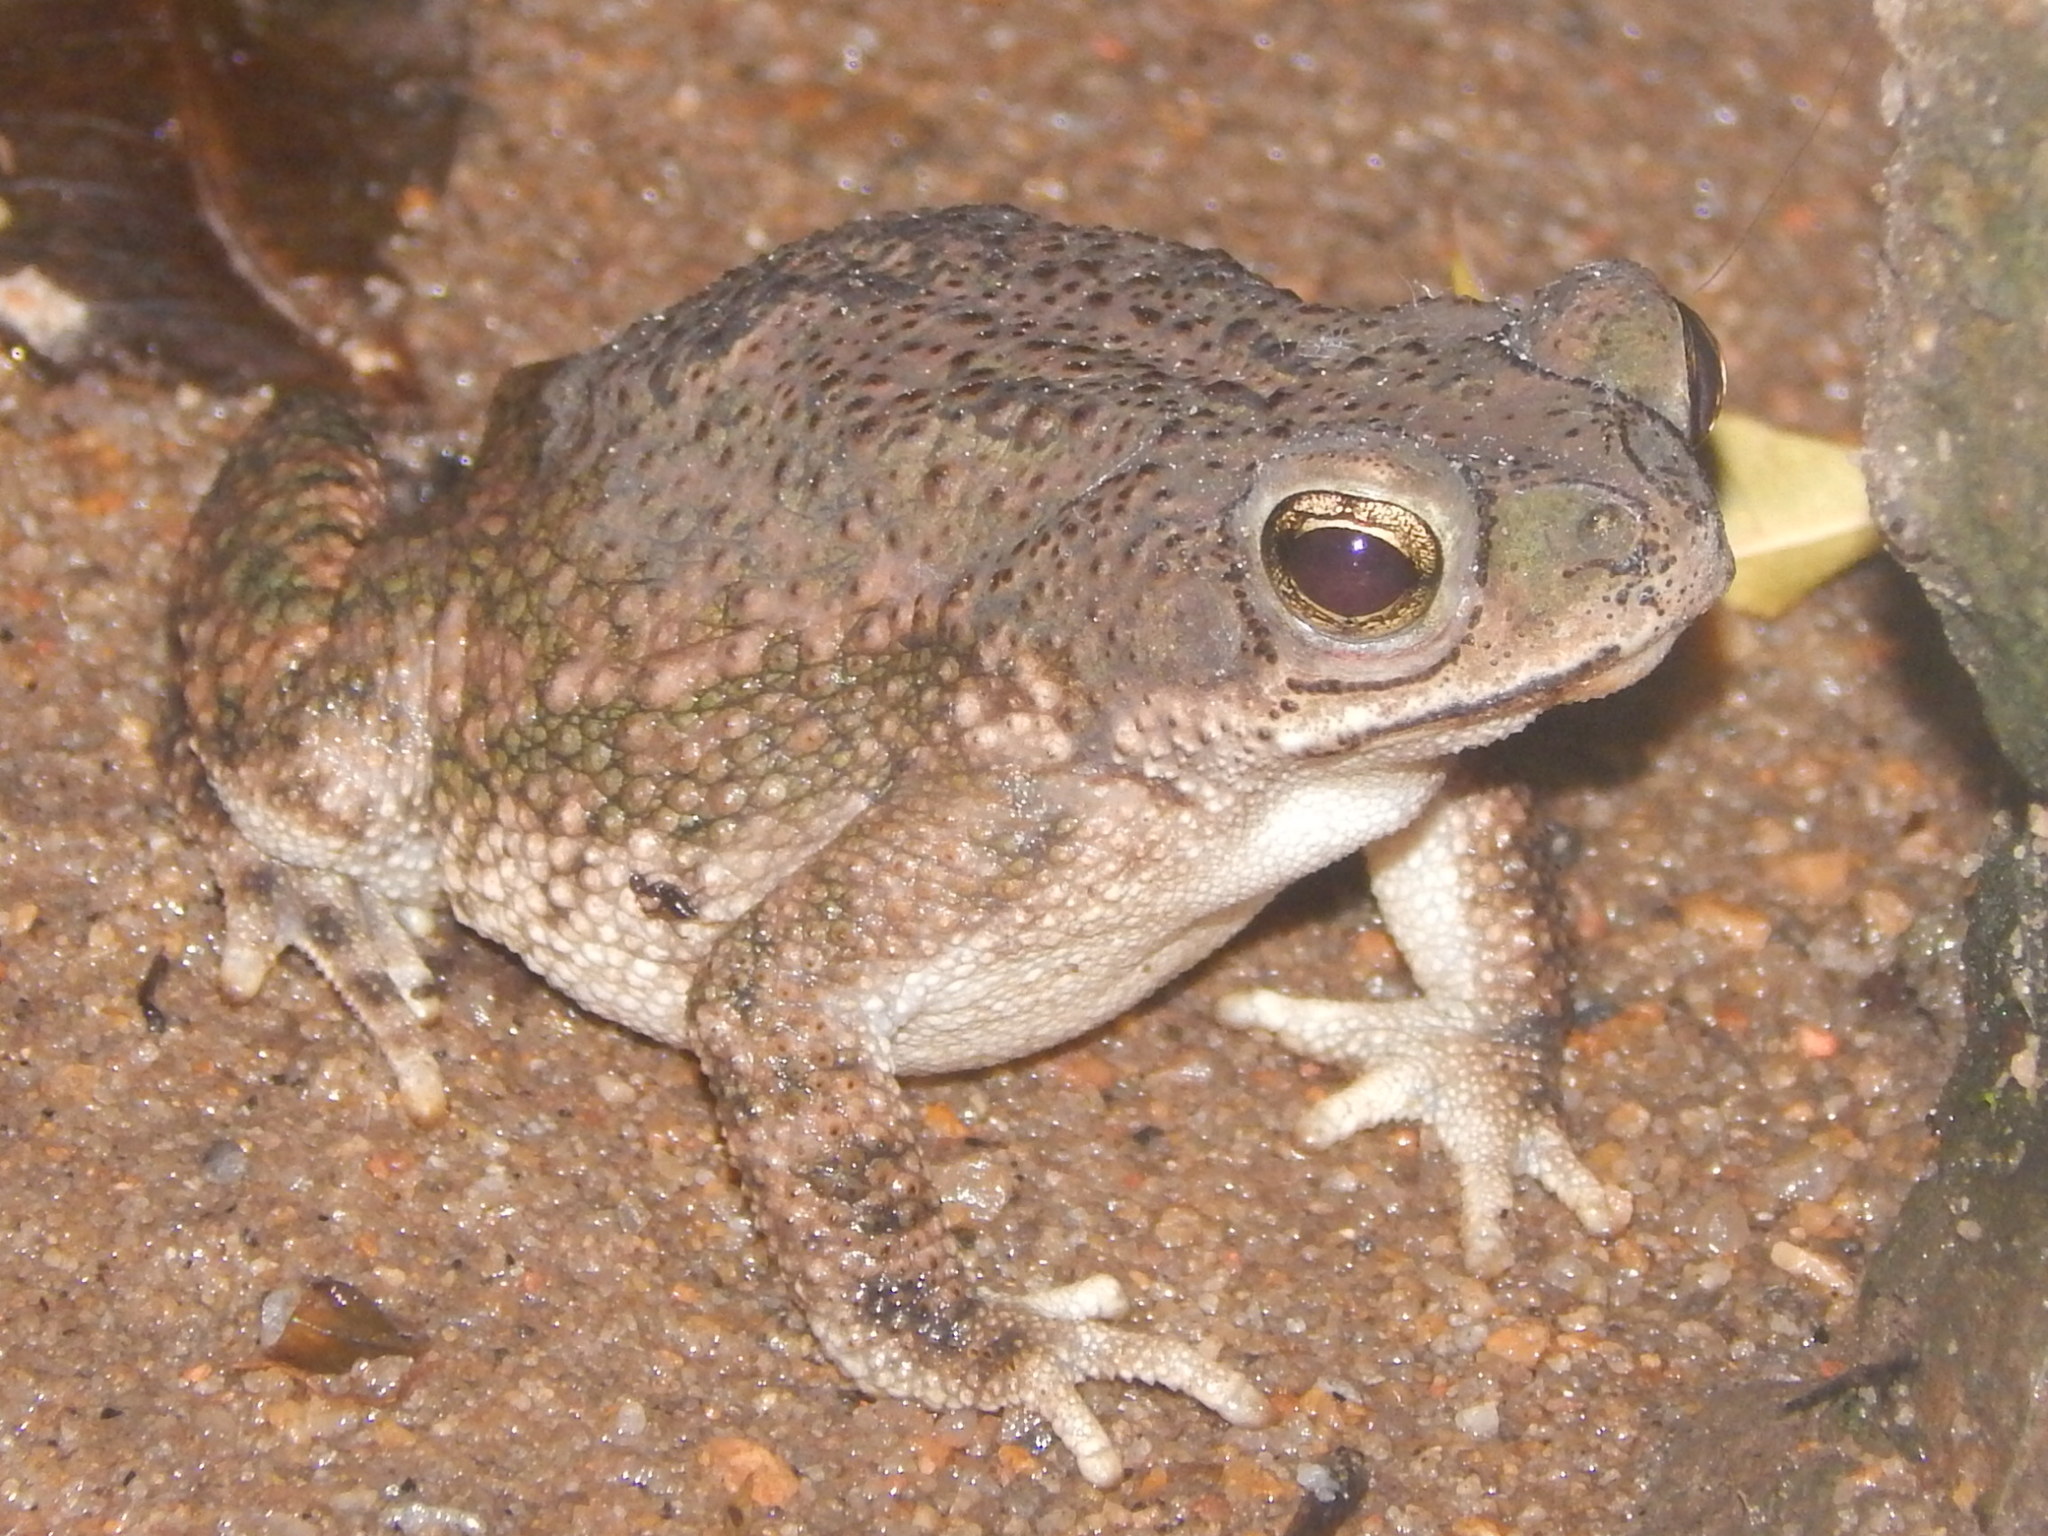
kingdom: Animalia
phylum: Chordata
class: Amphibia
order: Anura
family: Bufonidae
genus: Rhinella
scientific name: Rhinella granulosa
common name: Common lesser toad
